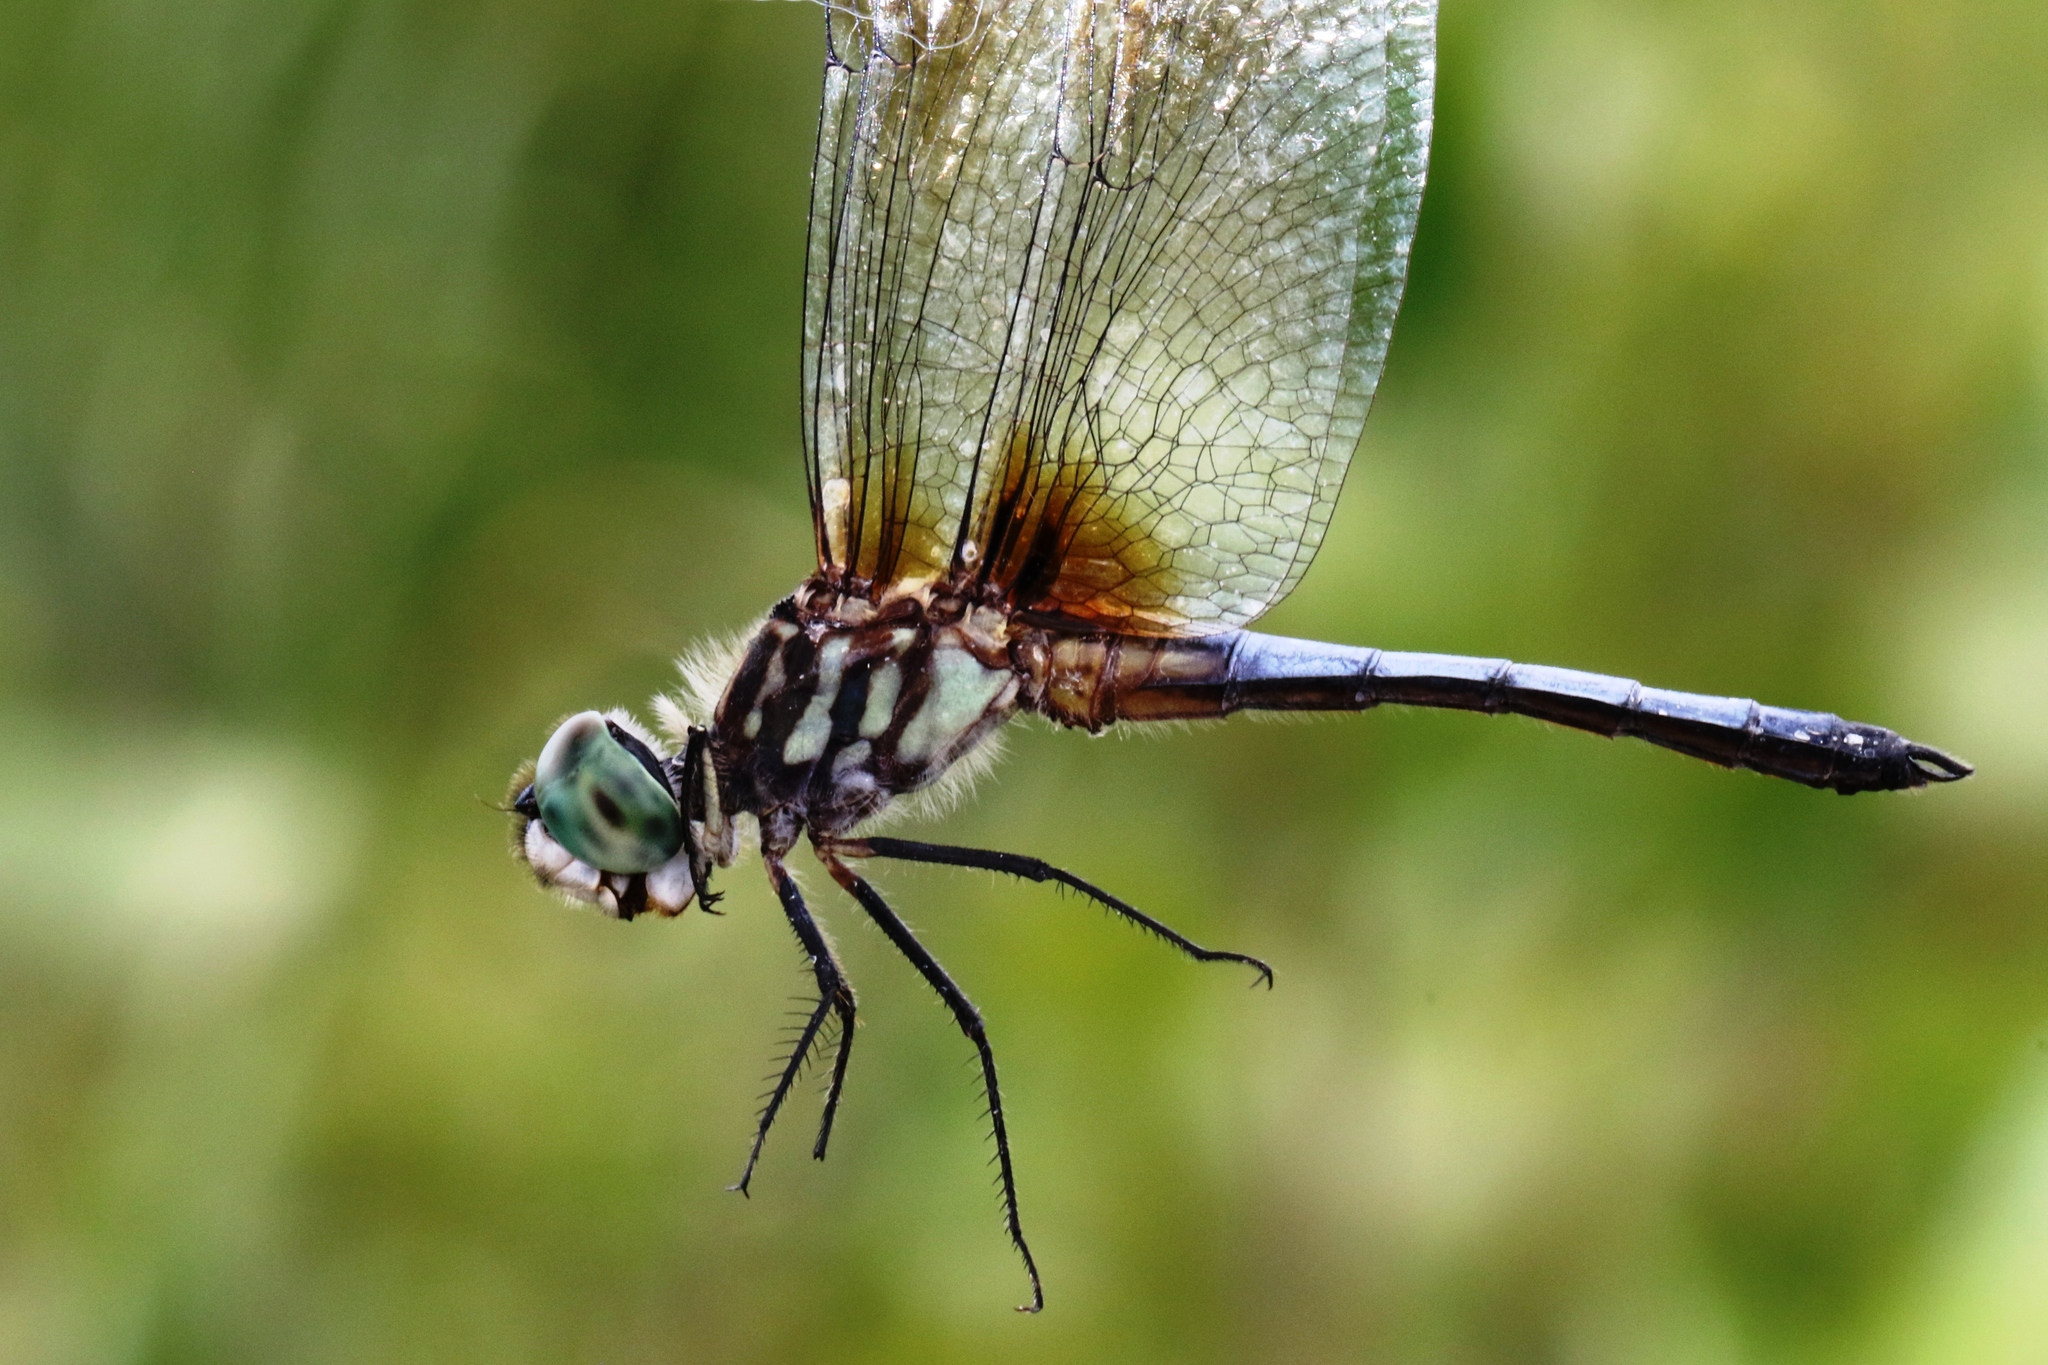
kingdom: Animalia
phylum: Arthropoda
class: Insecta
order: Odonata
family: Libellulidae
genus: Pachydiplax
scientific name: Pachydiplax longipennis
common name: Blue dasher
